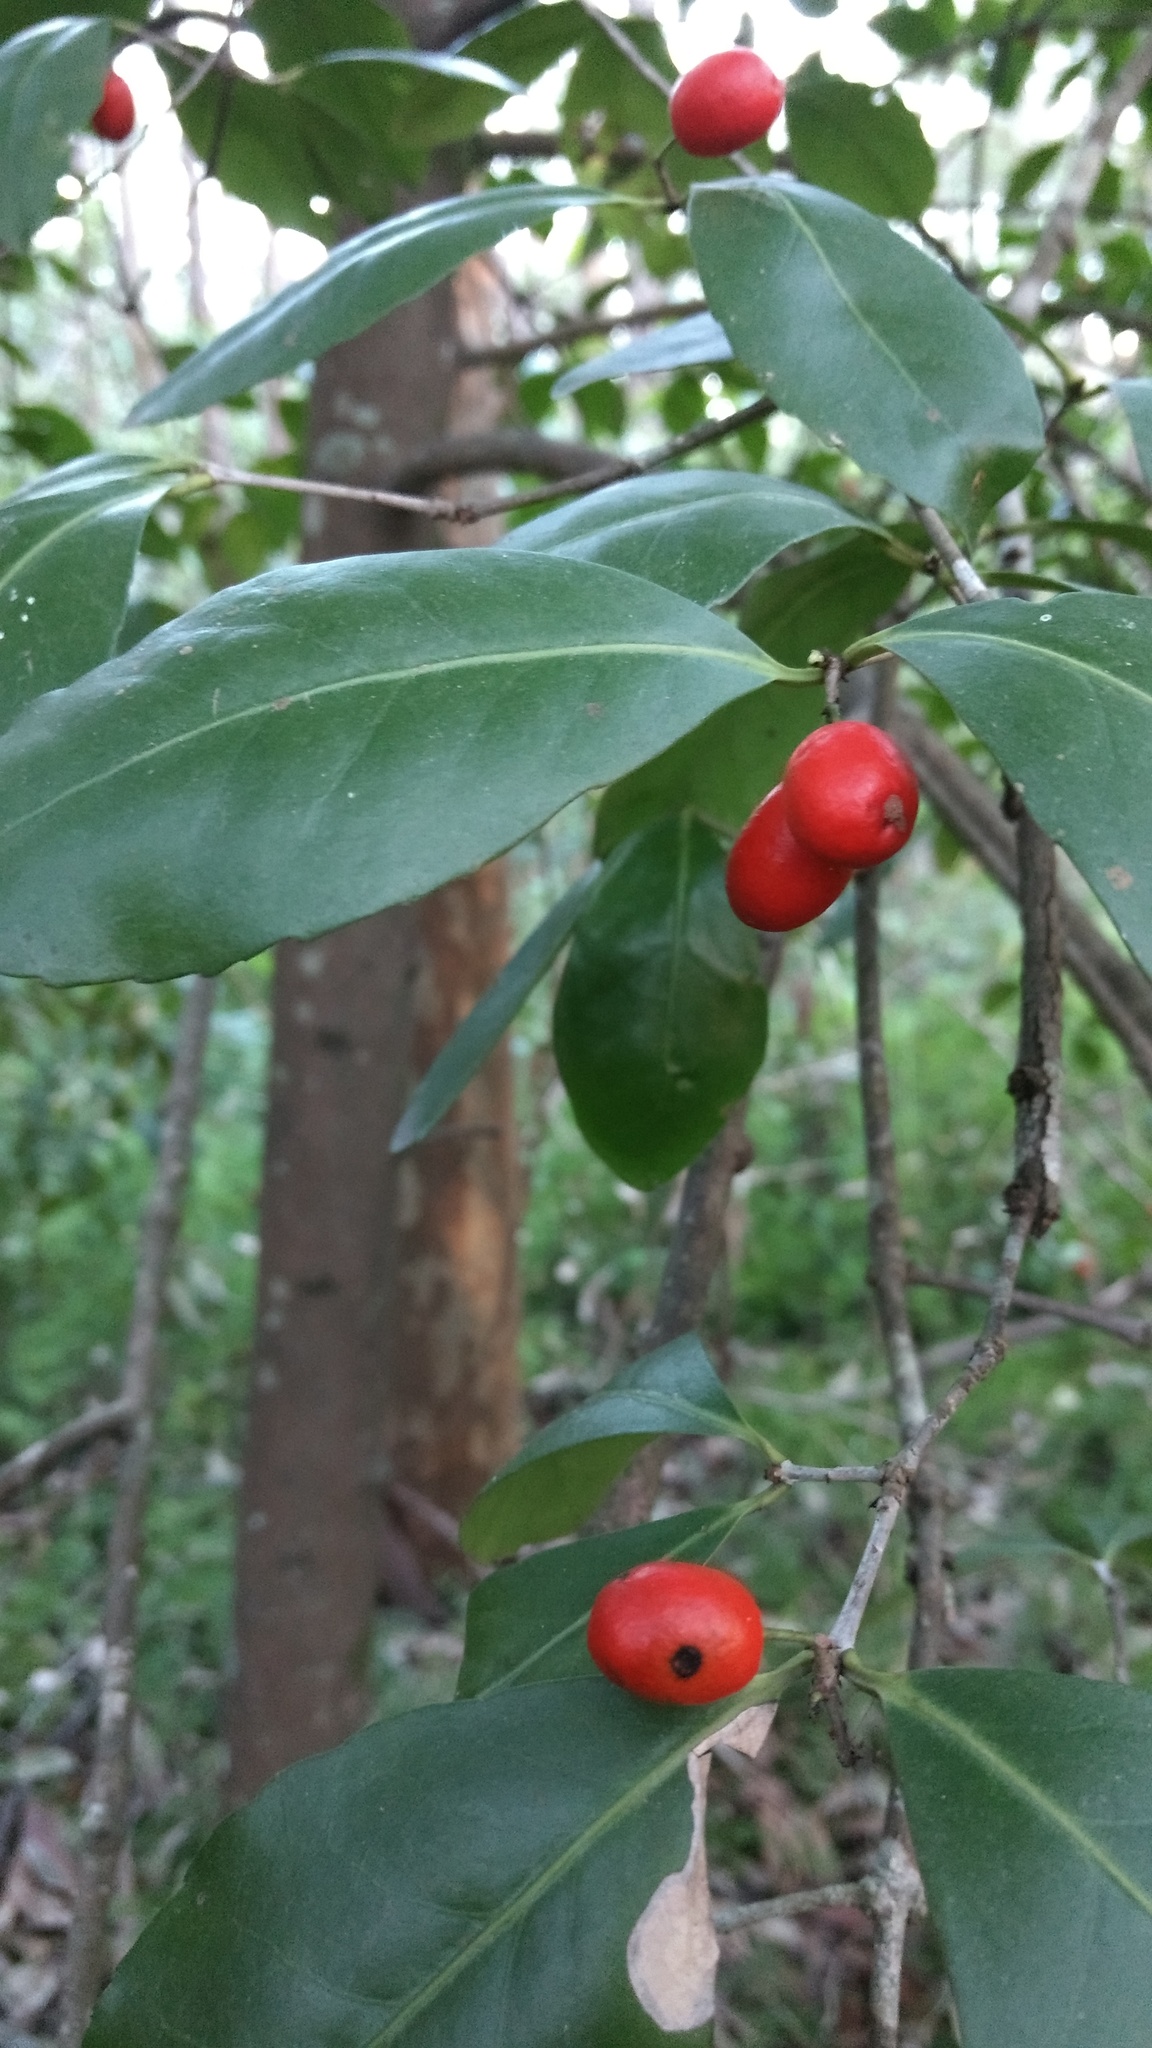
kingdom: Plantae
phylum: Tracheophyta
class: Magnoliopsida
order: Celastrales
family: Celastraceae
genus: Elaeodendron
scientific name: Elaeodendron australe
